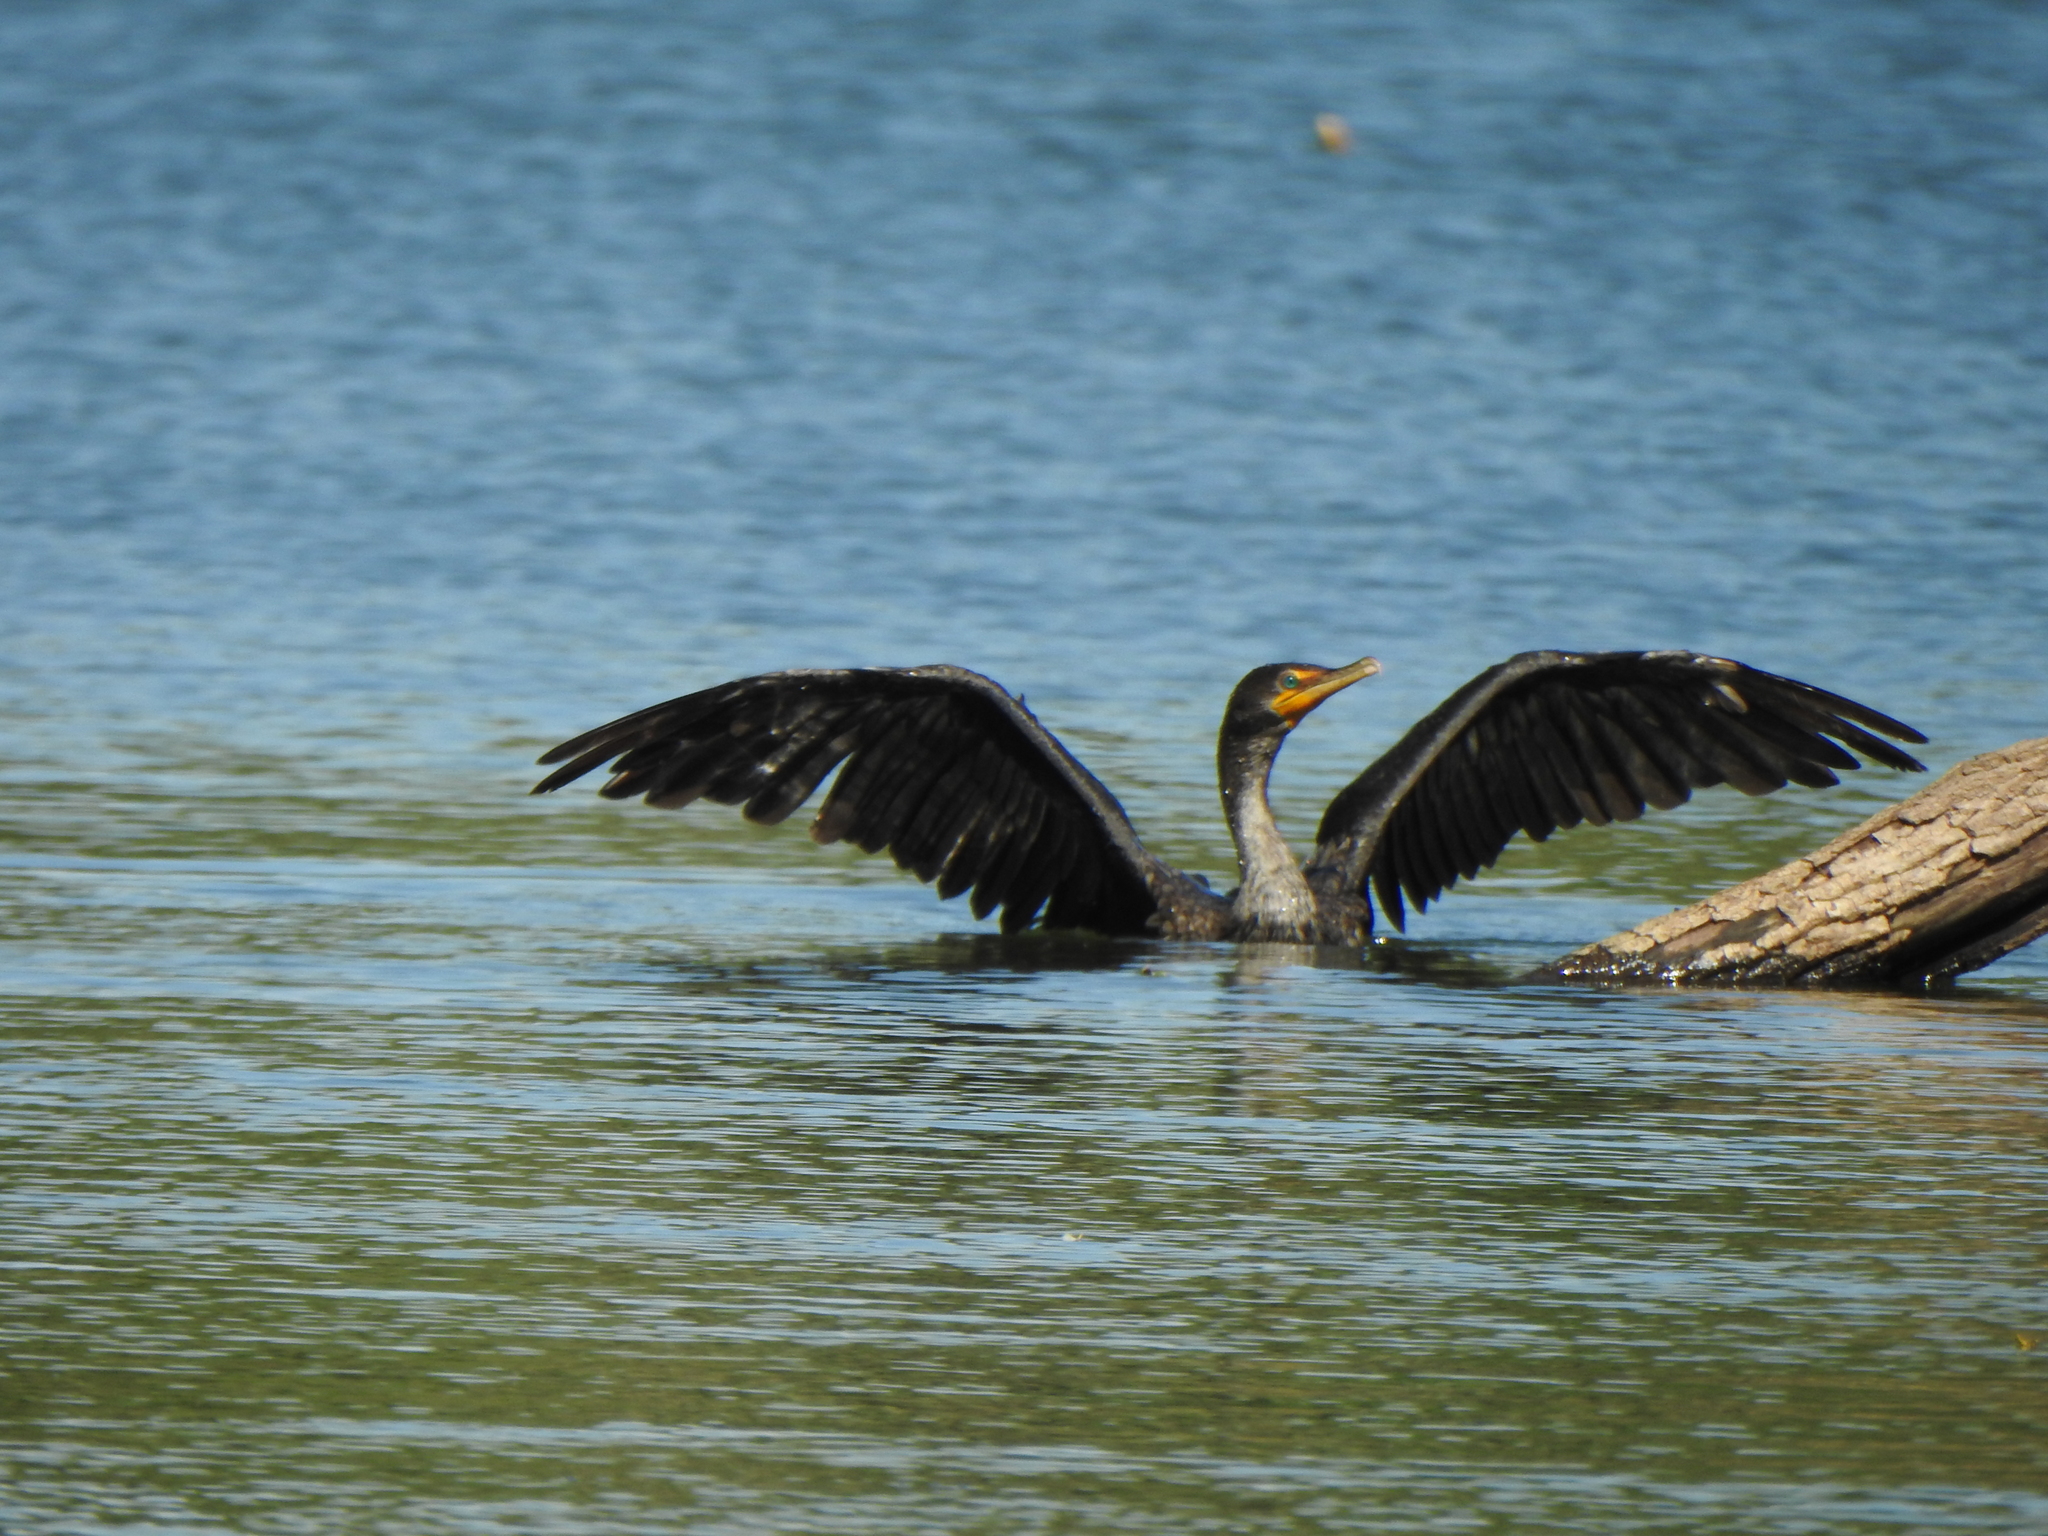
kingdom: Animalia
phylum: Chordata
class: Aves
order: Suliformes
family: Phalacrocoracidae
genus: Phalacrocorax
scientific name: Phalacrocorax auritus
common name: Double-crested cormorant
